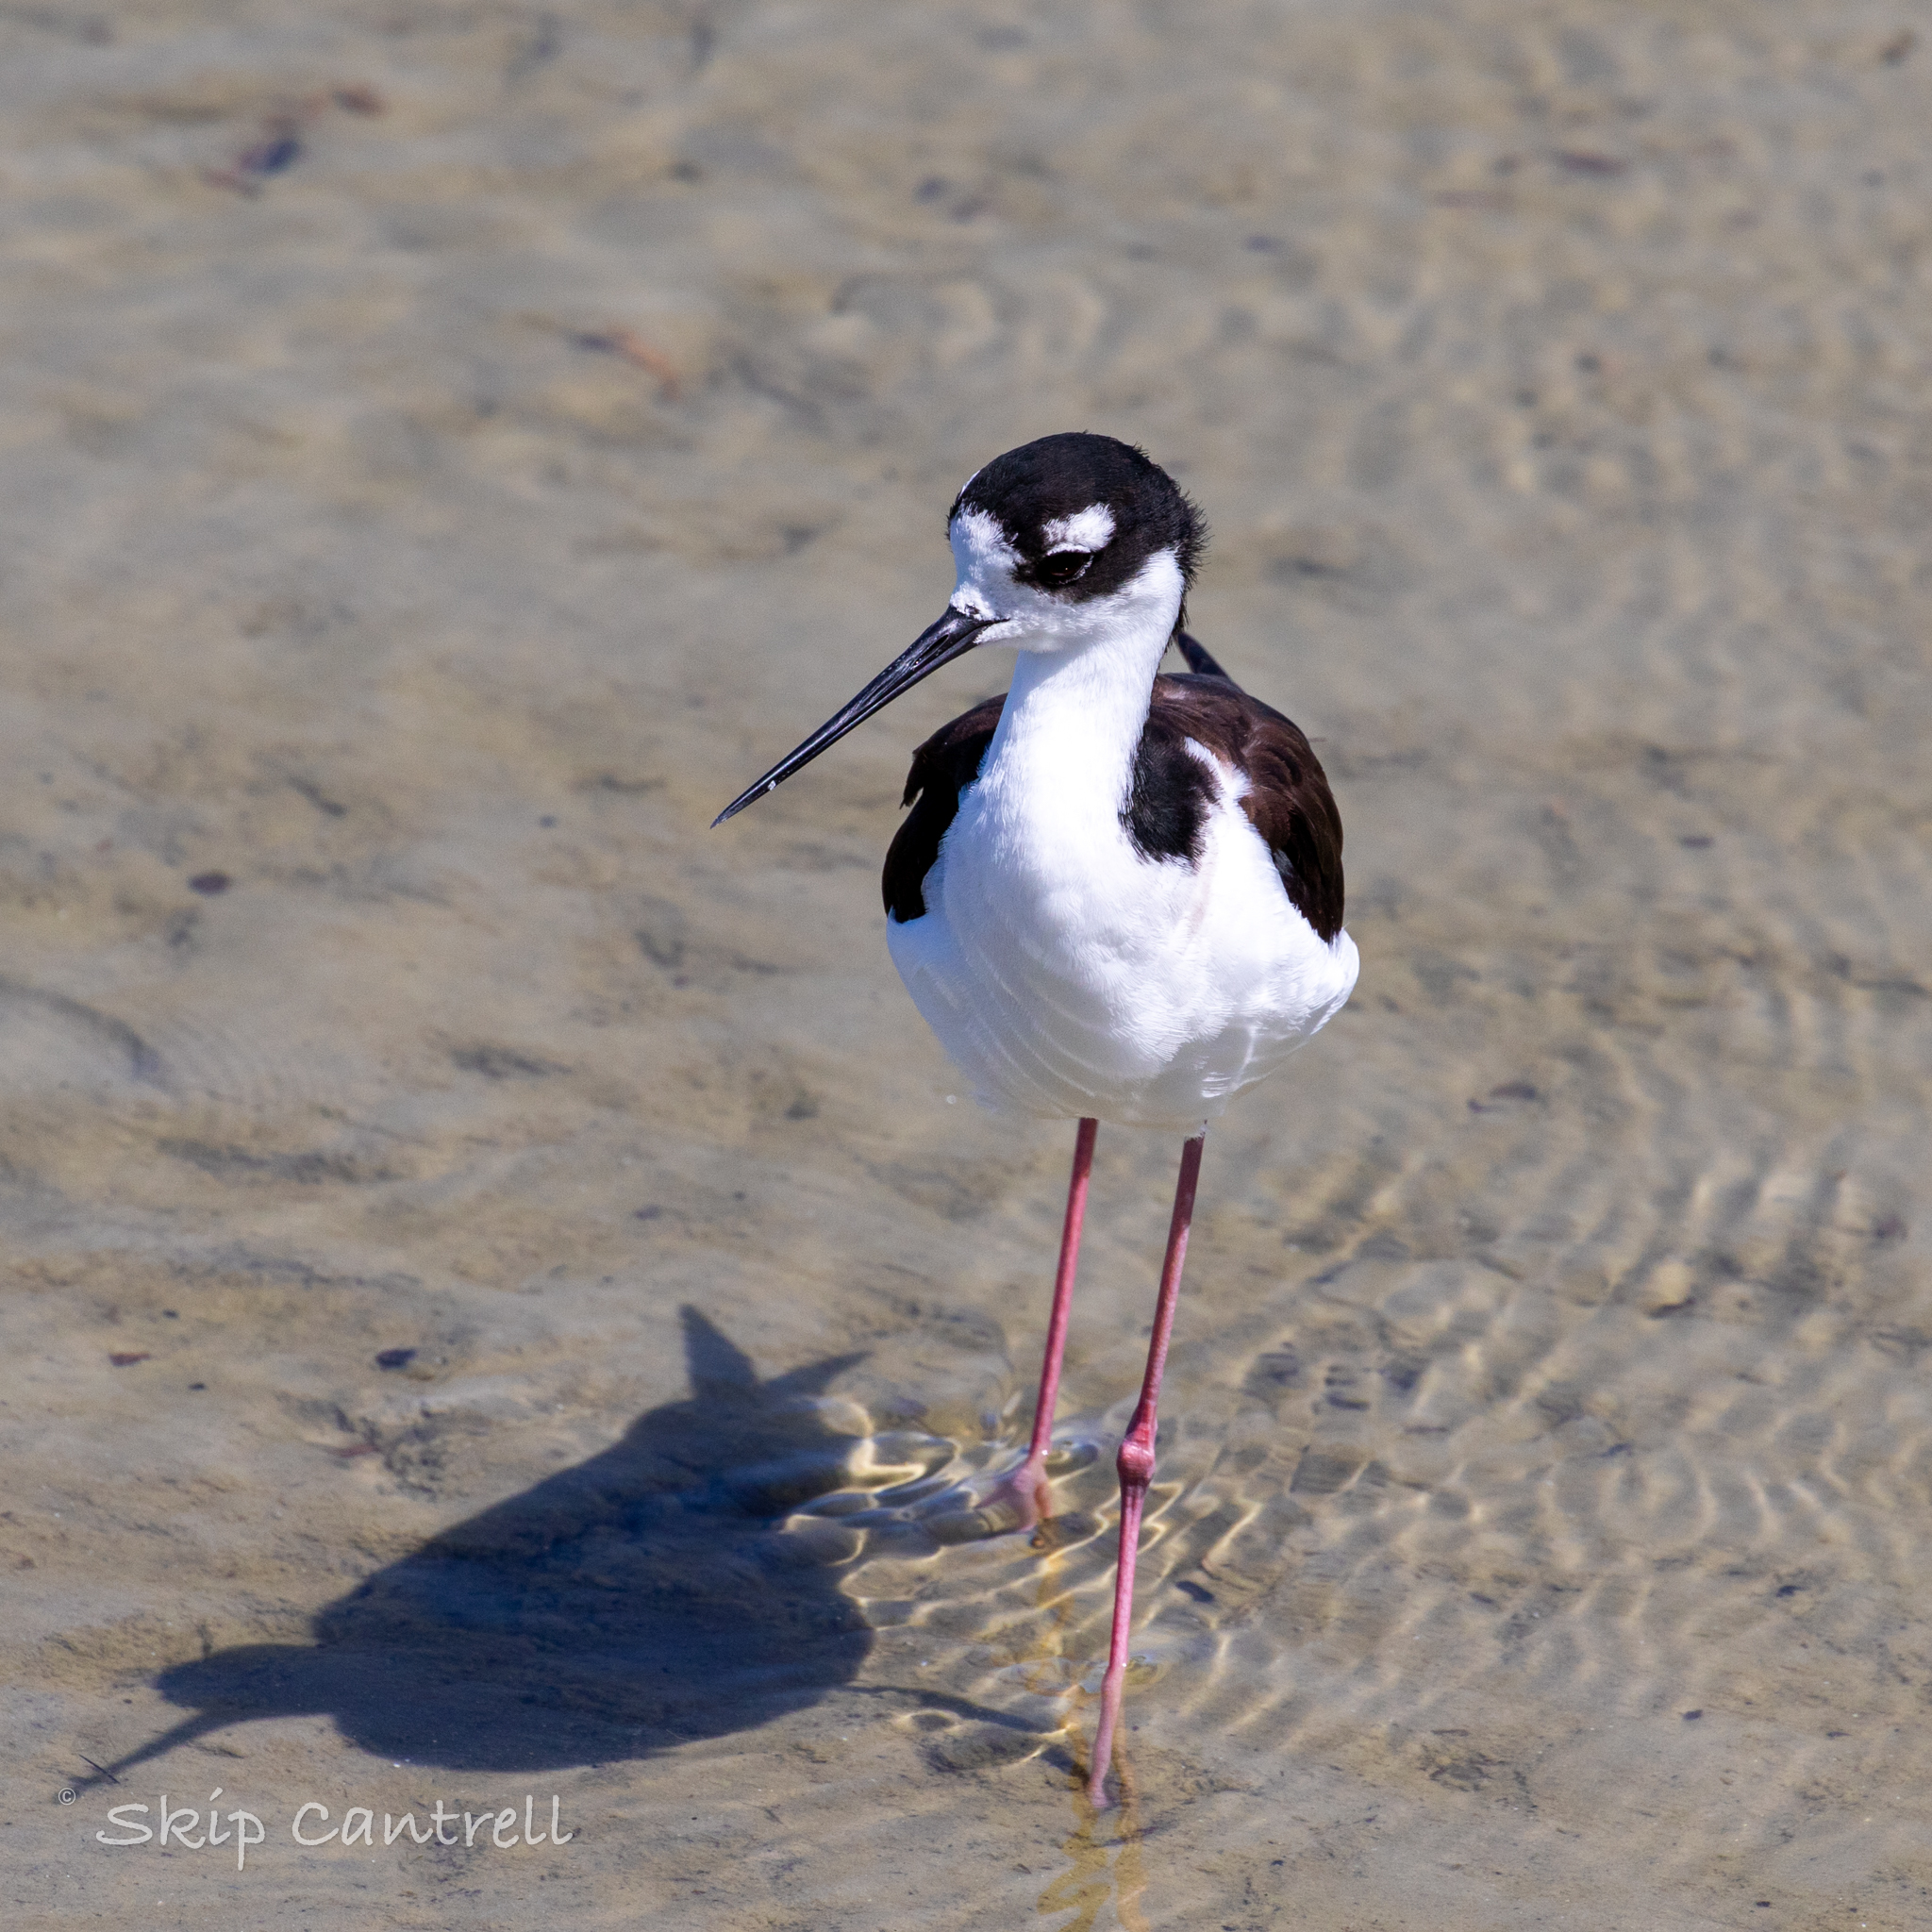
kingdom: Animalia
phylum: Chordata
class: Aves
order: Charadriiformes
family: Recurvirostridae
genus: Himantopus
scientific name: Himantopus mexicanus
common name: Black-necked stilt
